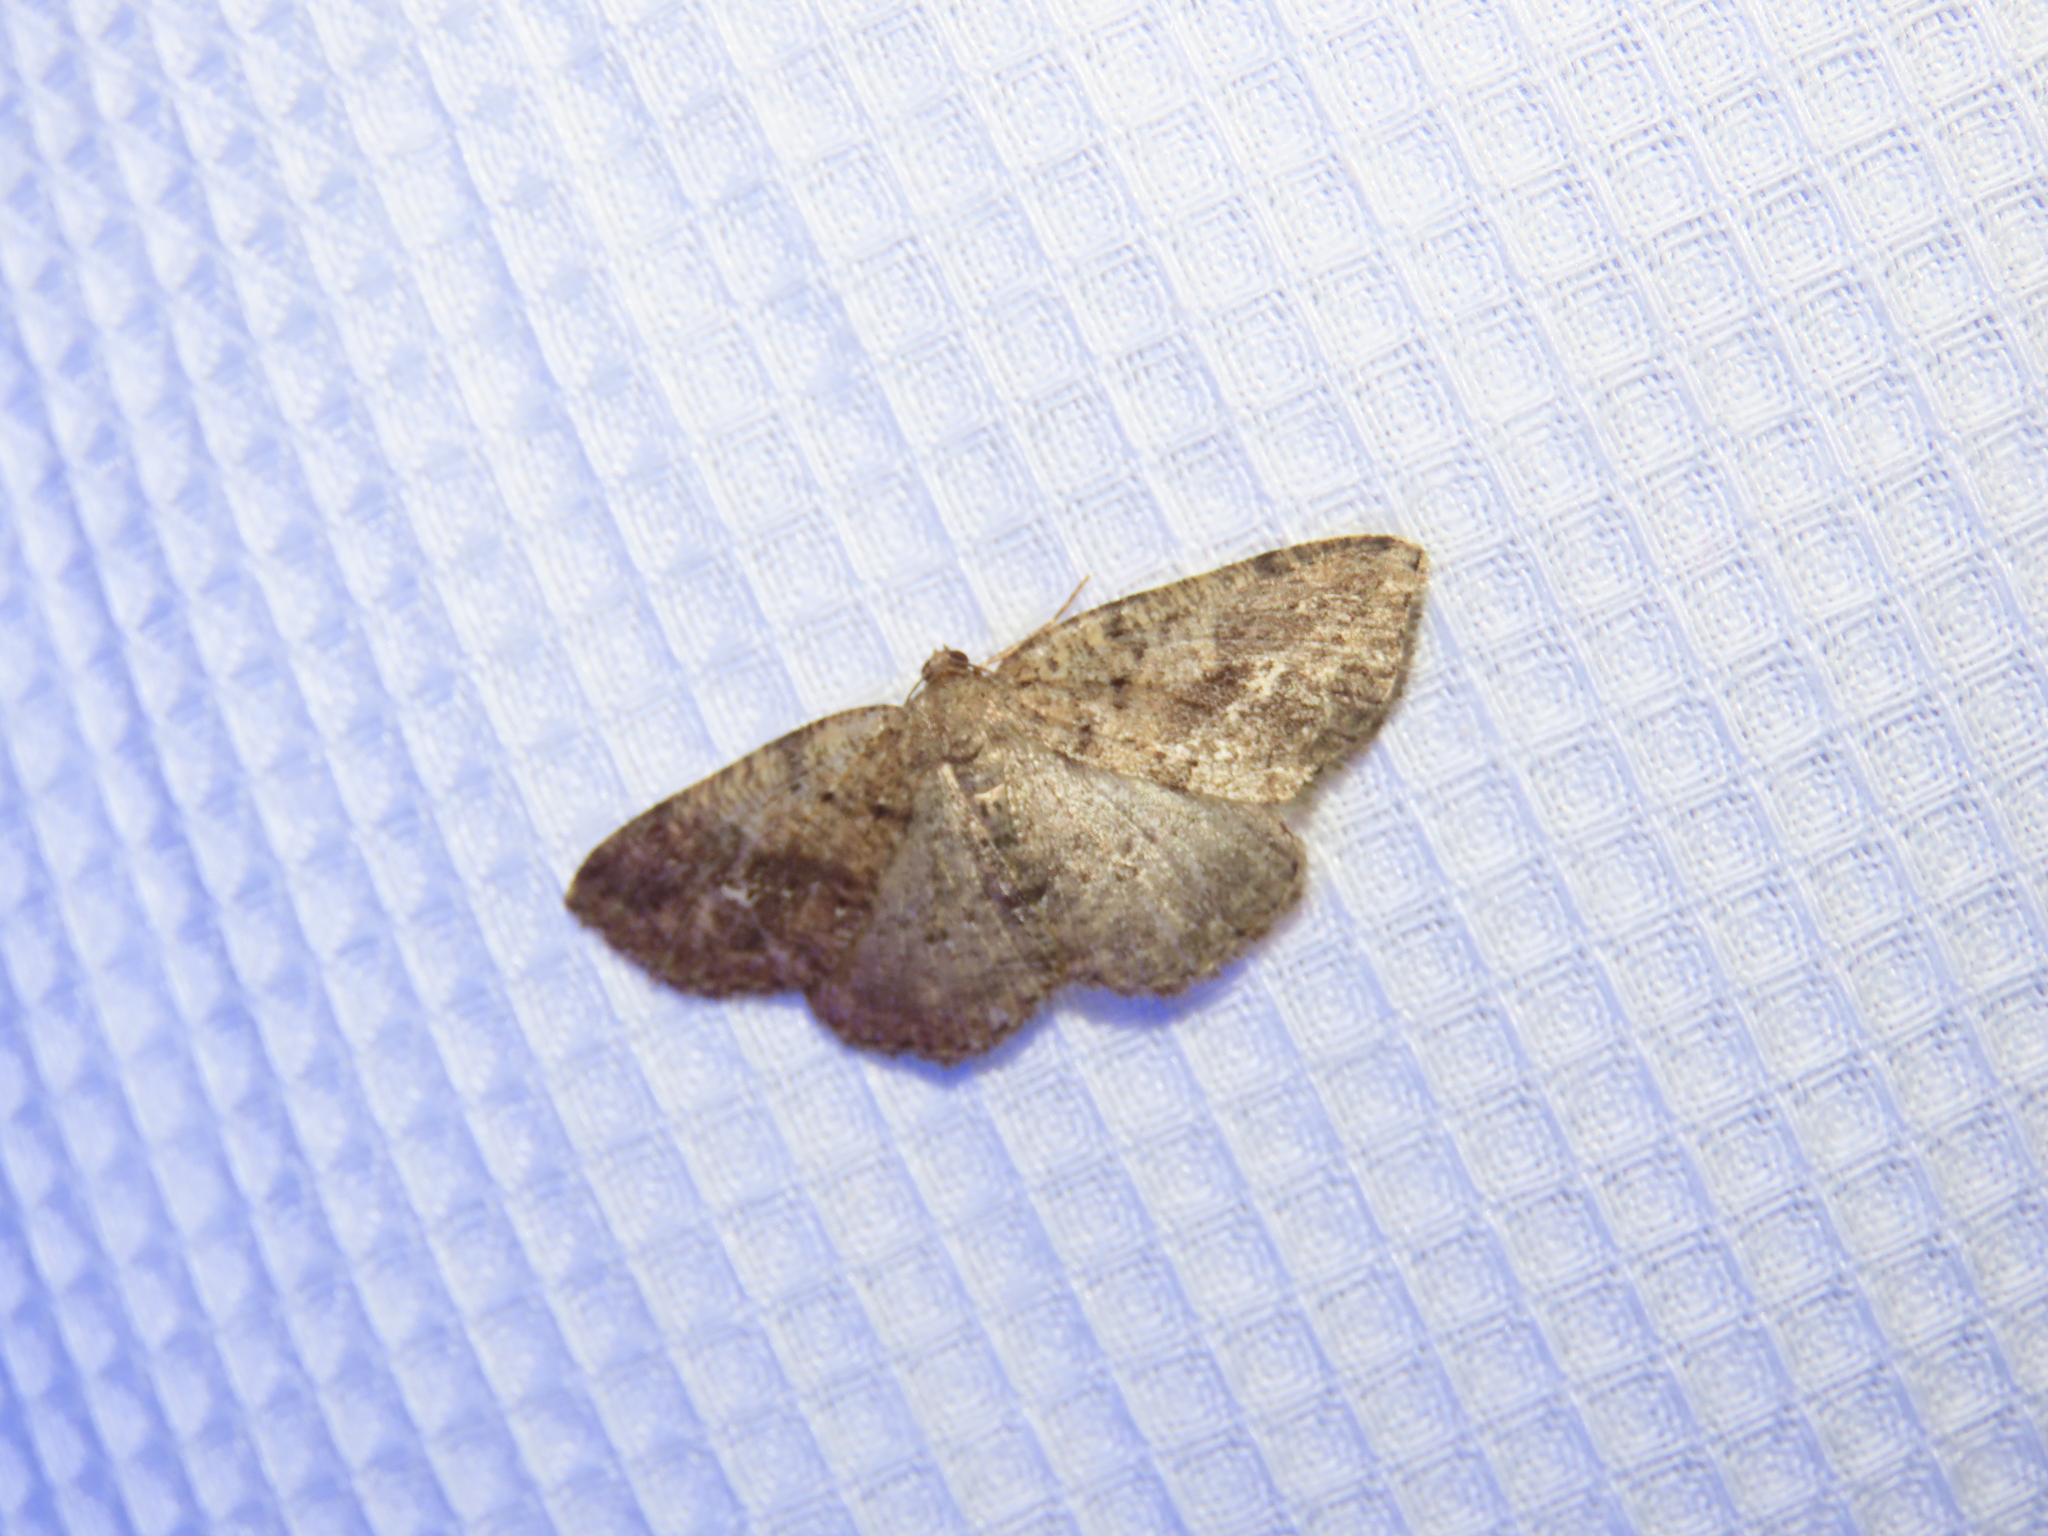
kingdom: Animalia
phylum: Arthropoda
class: Insecta
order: Lepidoptera
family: Geometridae
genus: Homochlodes
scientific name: Homochlodes fritillaria
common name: Pale homochlodes
